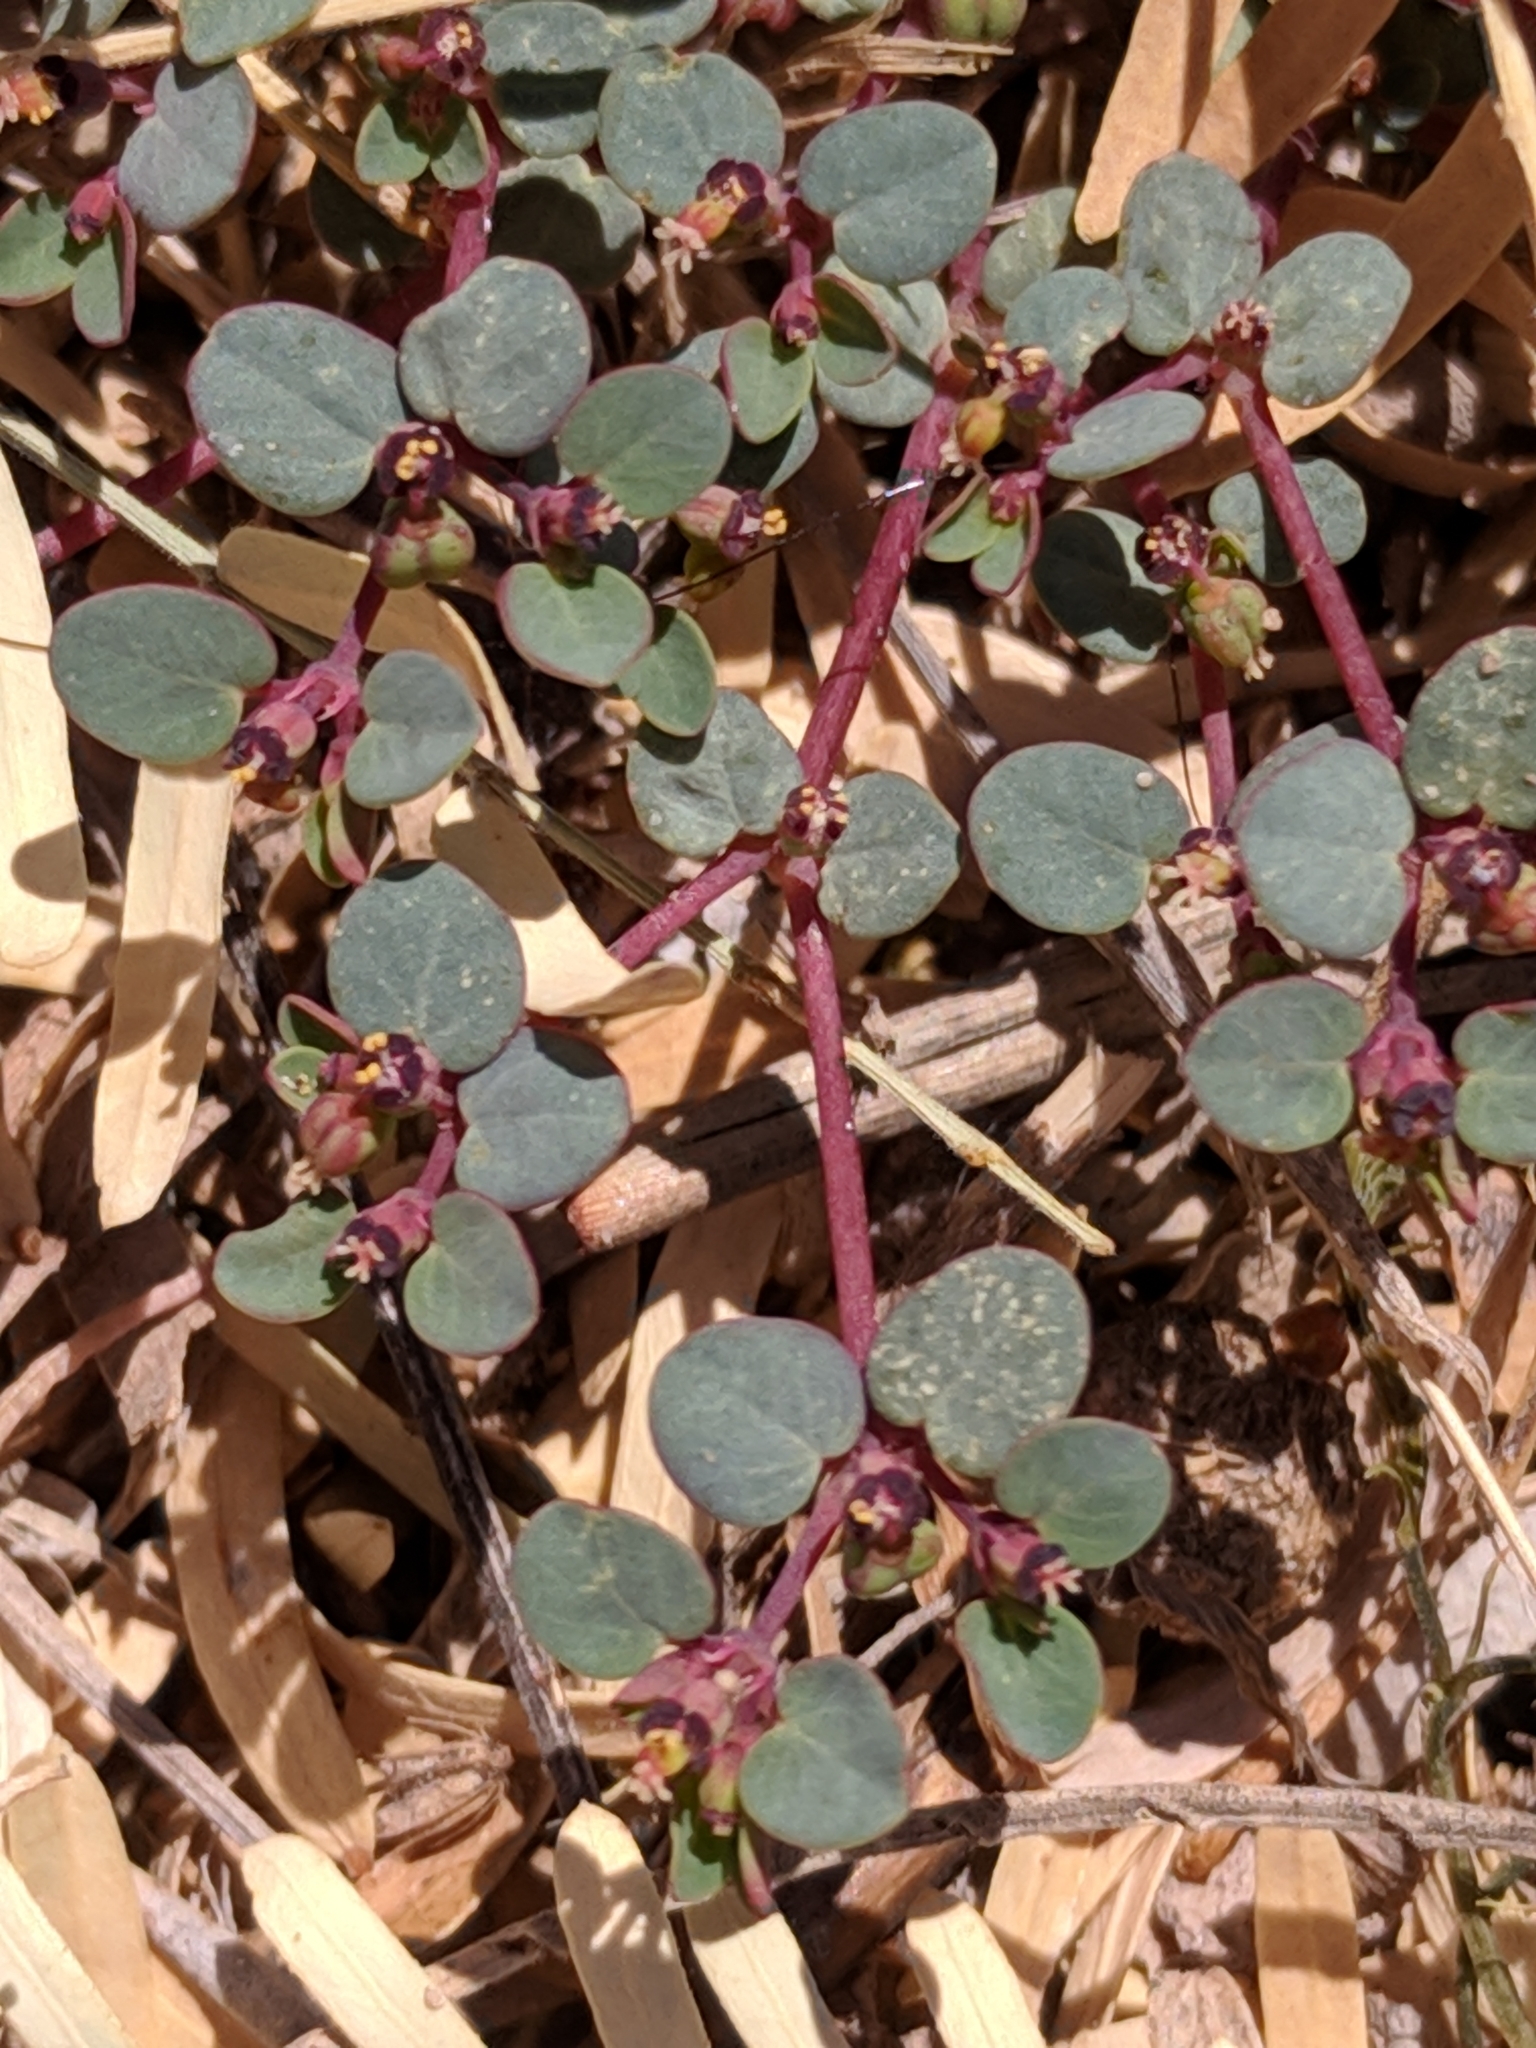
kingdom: Plantae
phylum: Tracheophyta
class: Magnoliopsida
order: Malpighiales
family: Euphorbiaceae
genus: Euphorbia
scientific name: Euphorbia simulans
